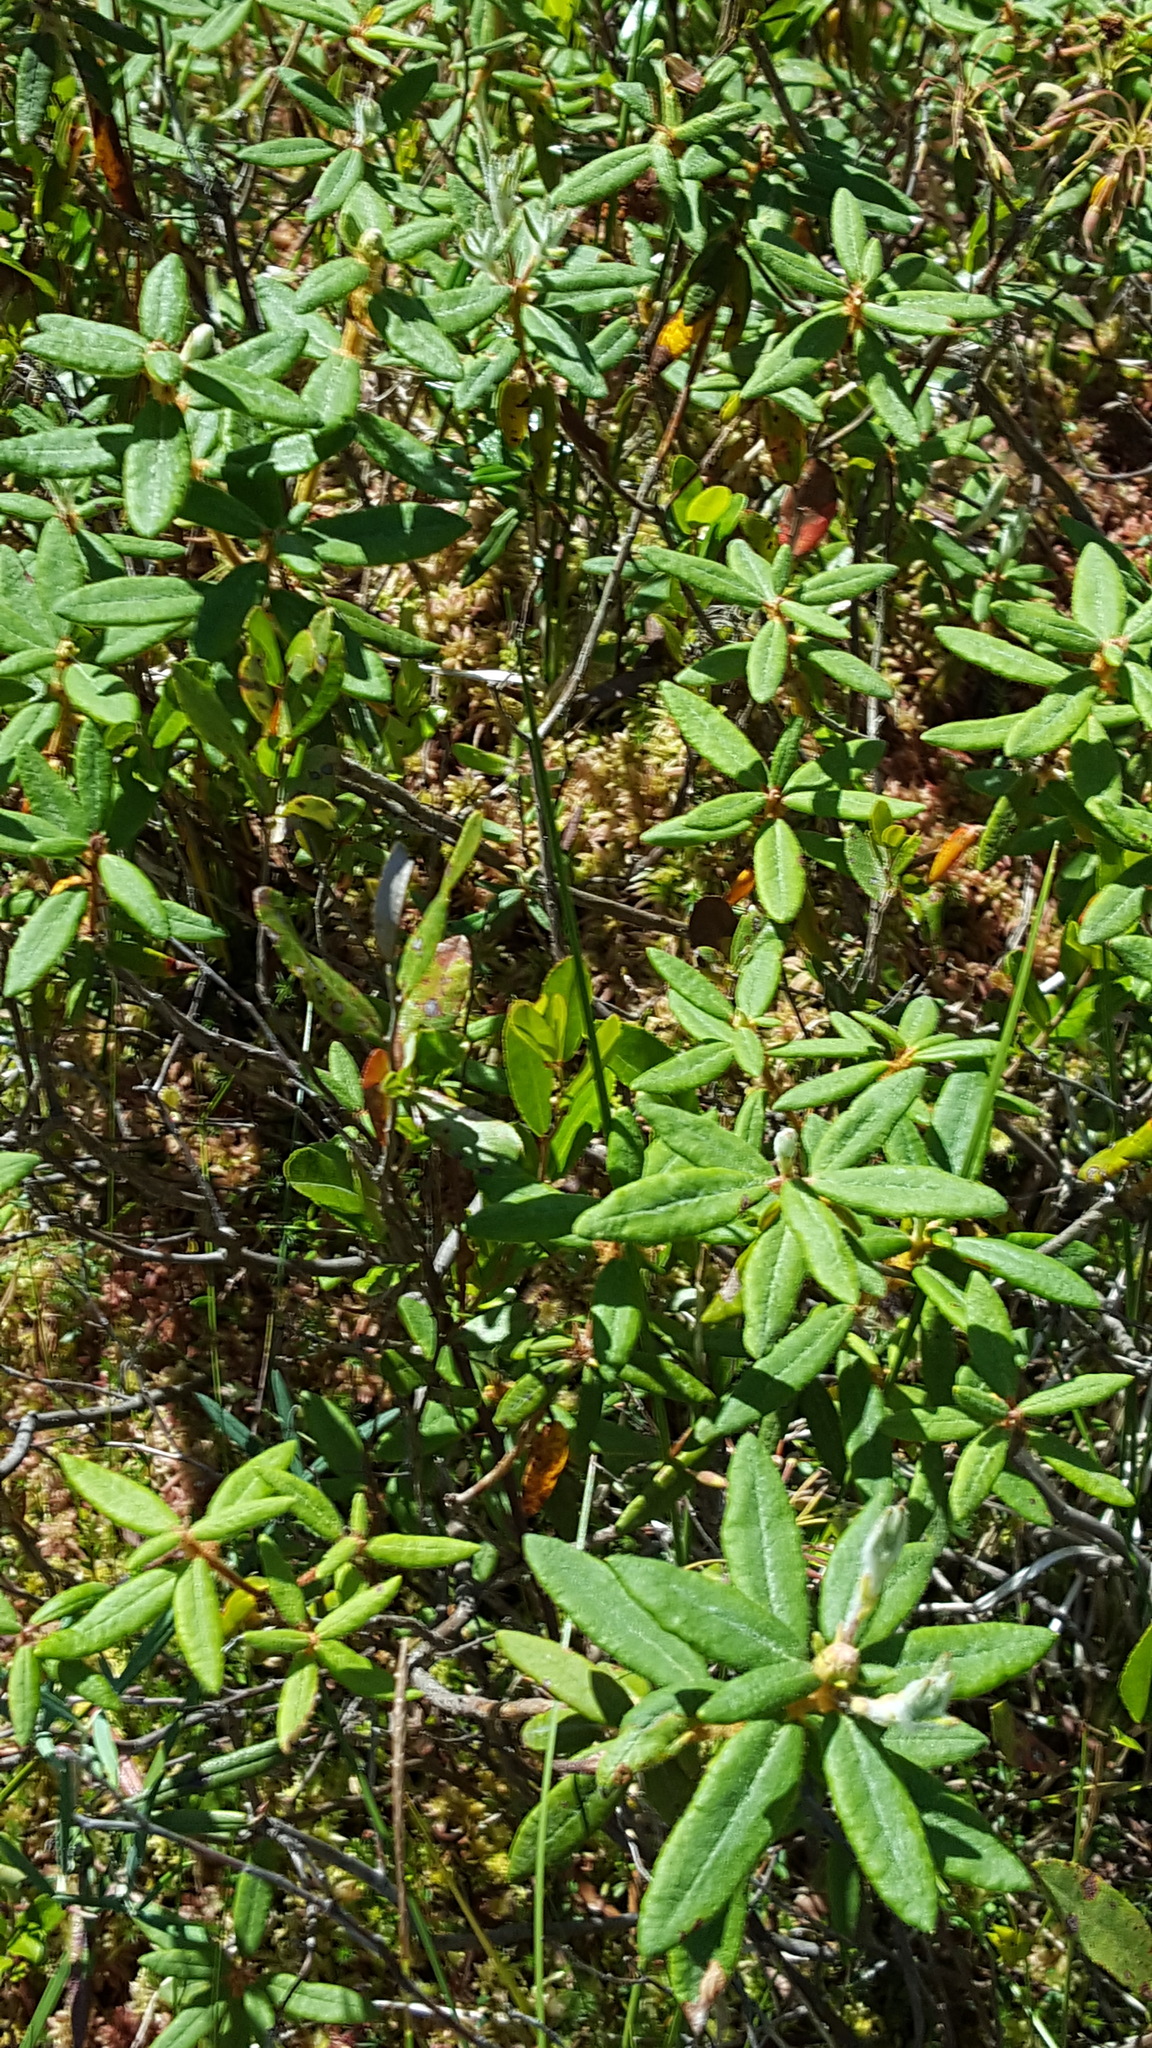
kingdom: Plantae
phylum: Tracheophyta
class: Magnoliopsida
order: Ericales
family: Ericaceae
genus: Rhododendron
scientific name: Rhododendron groenlandicum
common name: Bog labrador tea
